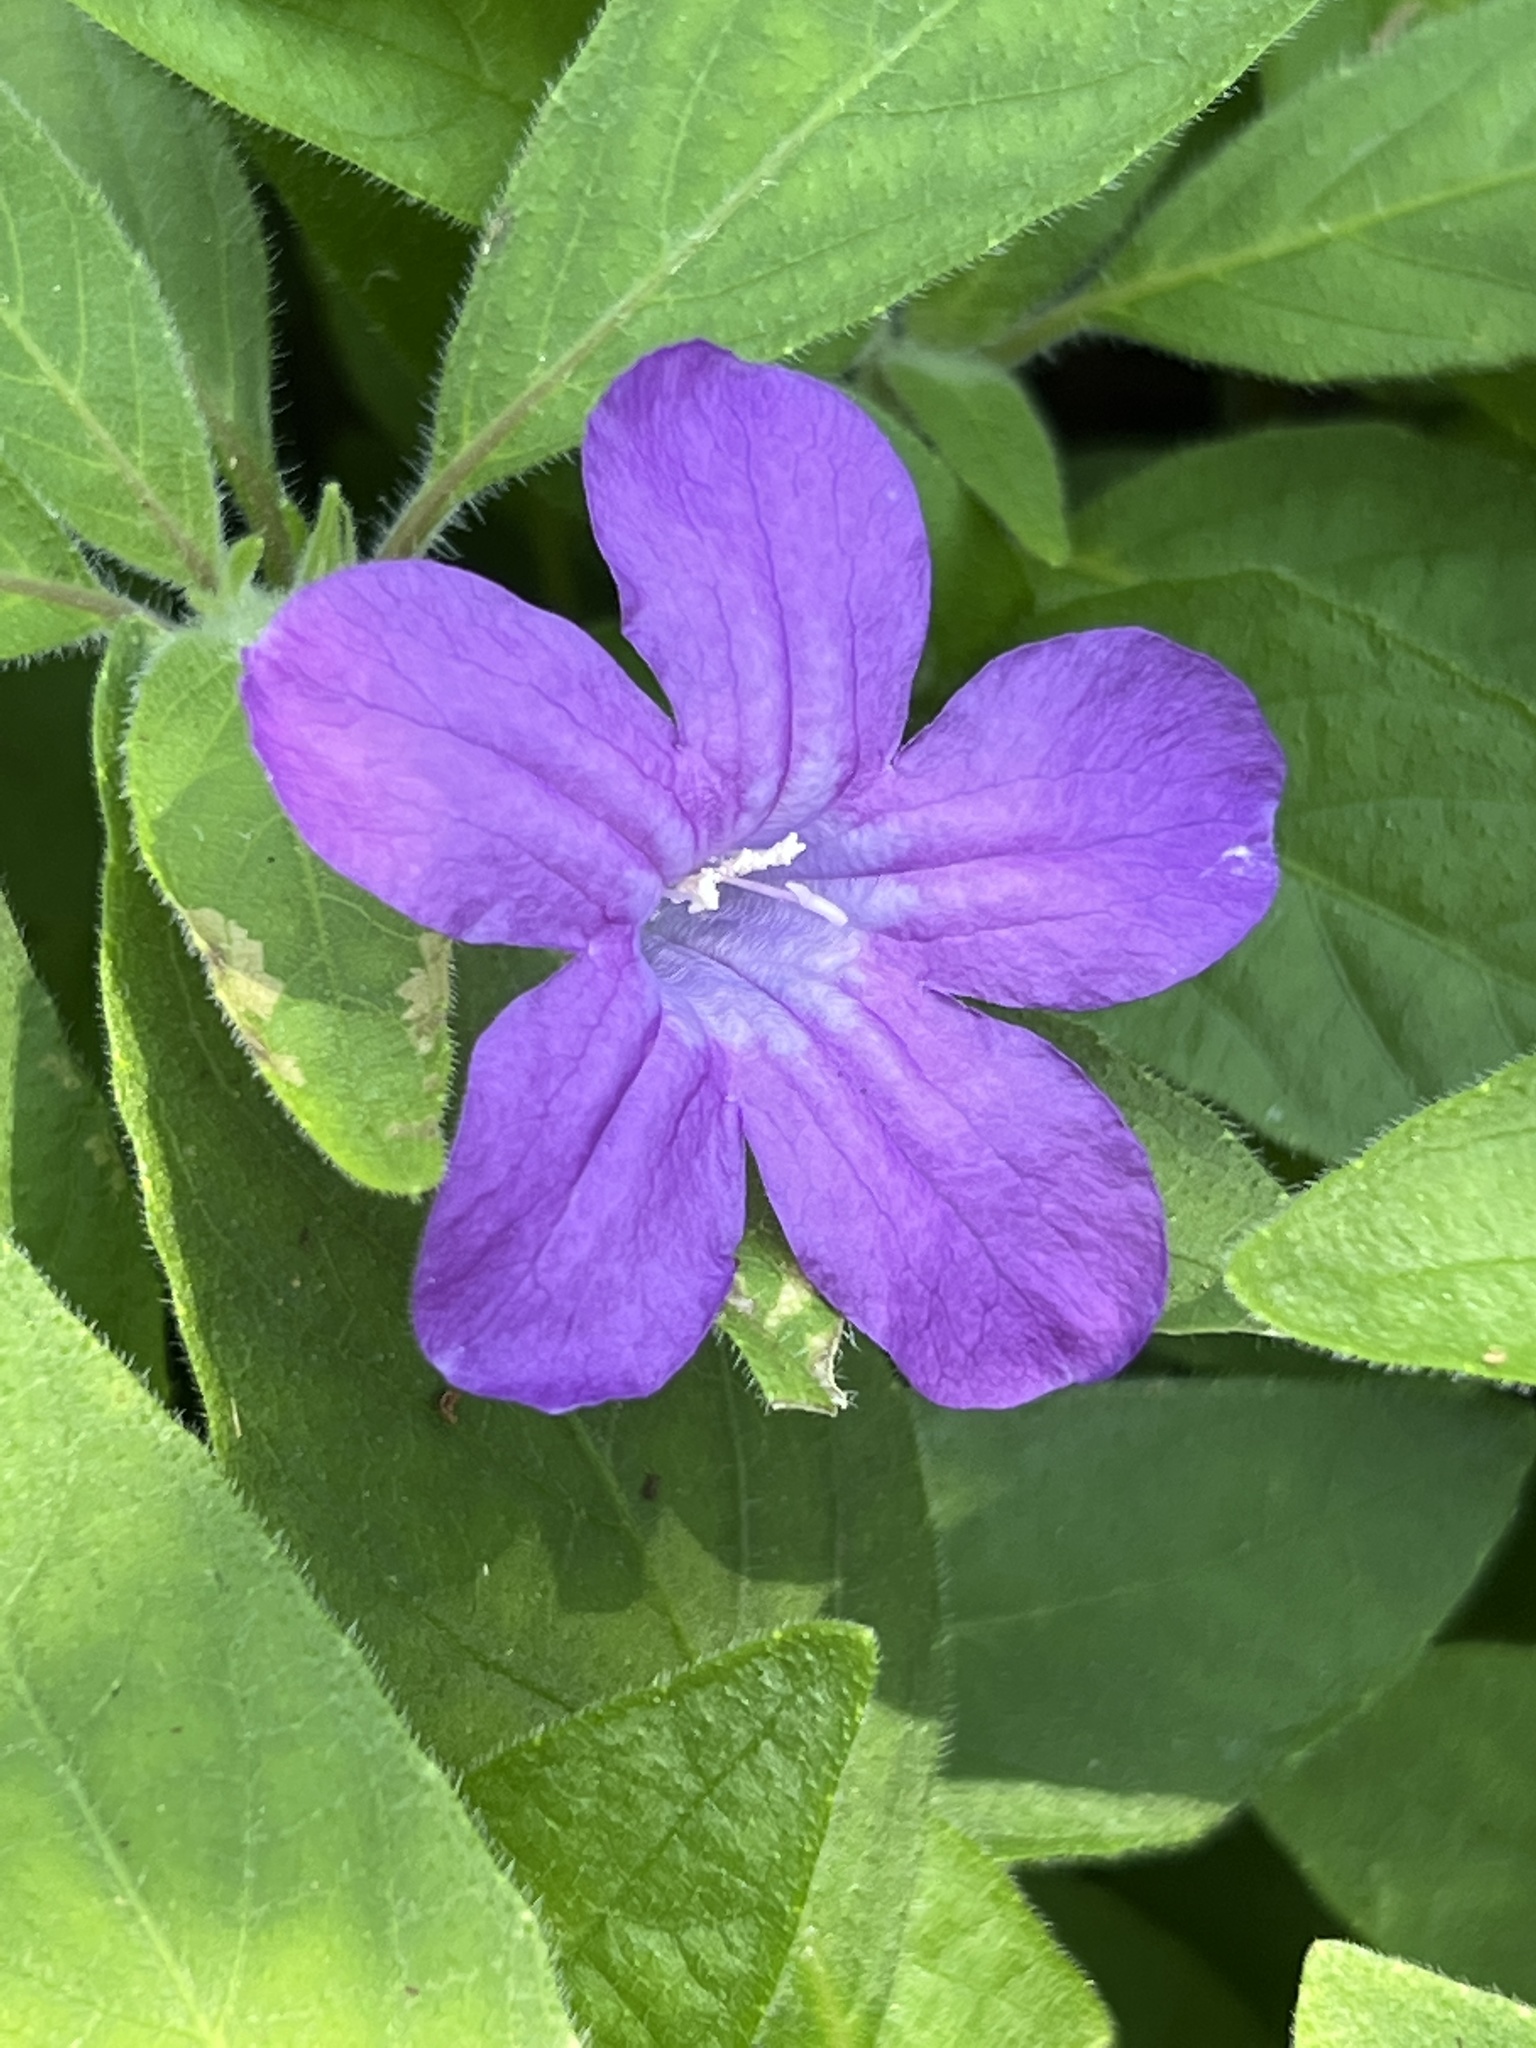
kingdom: Plantae
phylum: Tracheophyta
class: Magnoliopsida
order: Lamiales
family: Acanthaceae
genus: Ruellia
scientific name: Ruellia squarrosa
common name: Water bluebell
